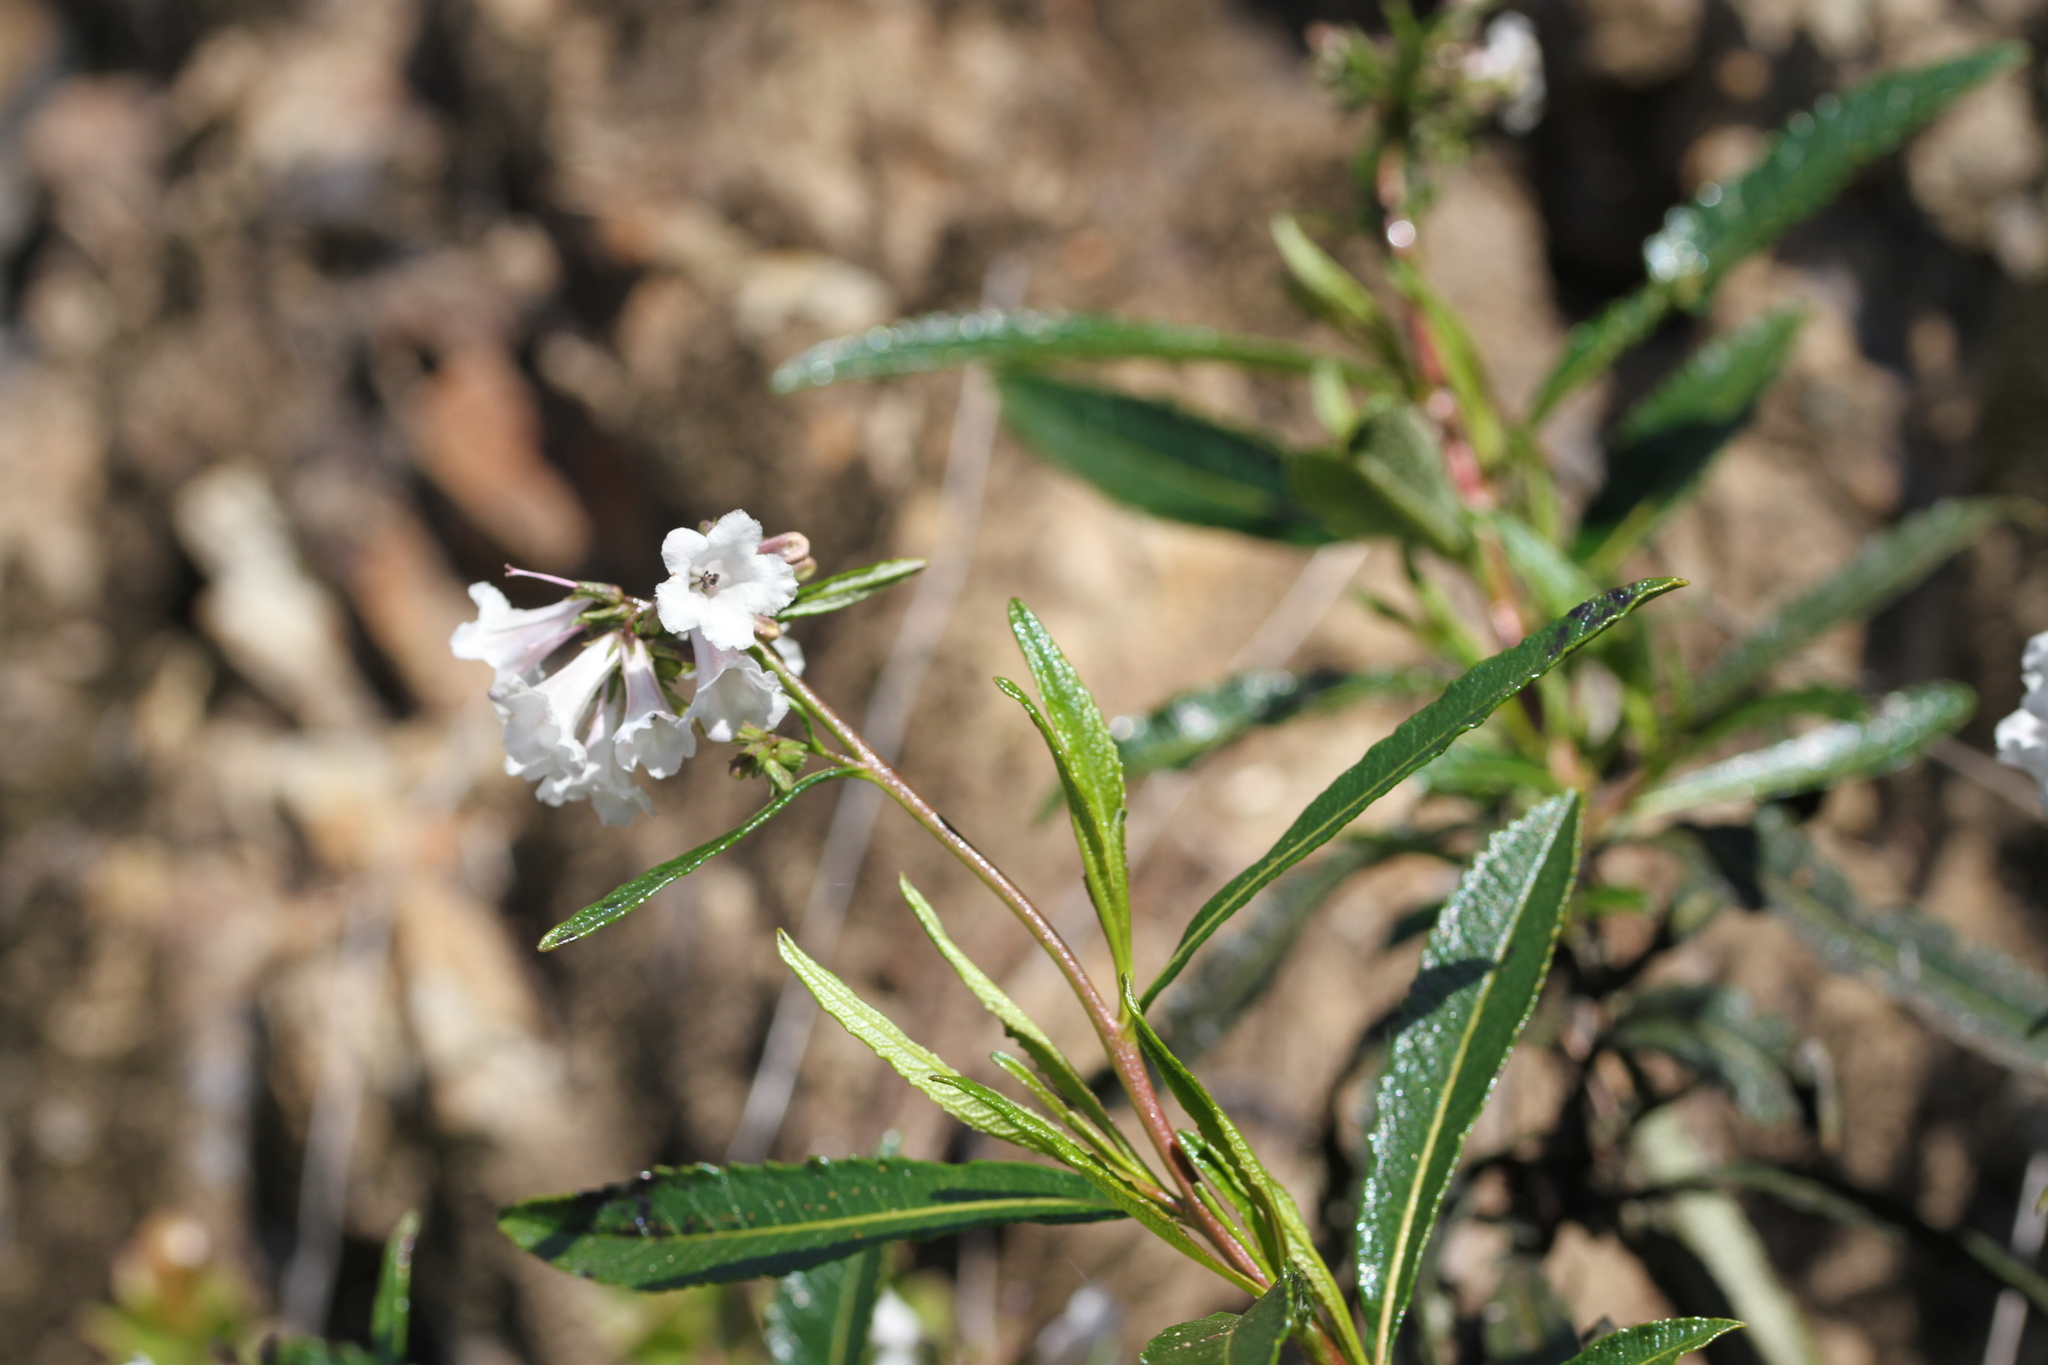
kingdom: Plantae
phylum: Tracheophyta
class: Magnoliopsida
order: Boraginales
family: Namaceae
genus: Eriodictyon
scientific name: Eriodictyon californicum
